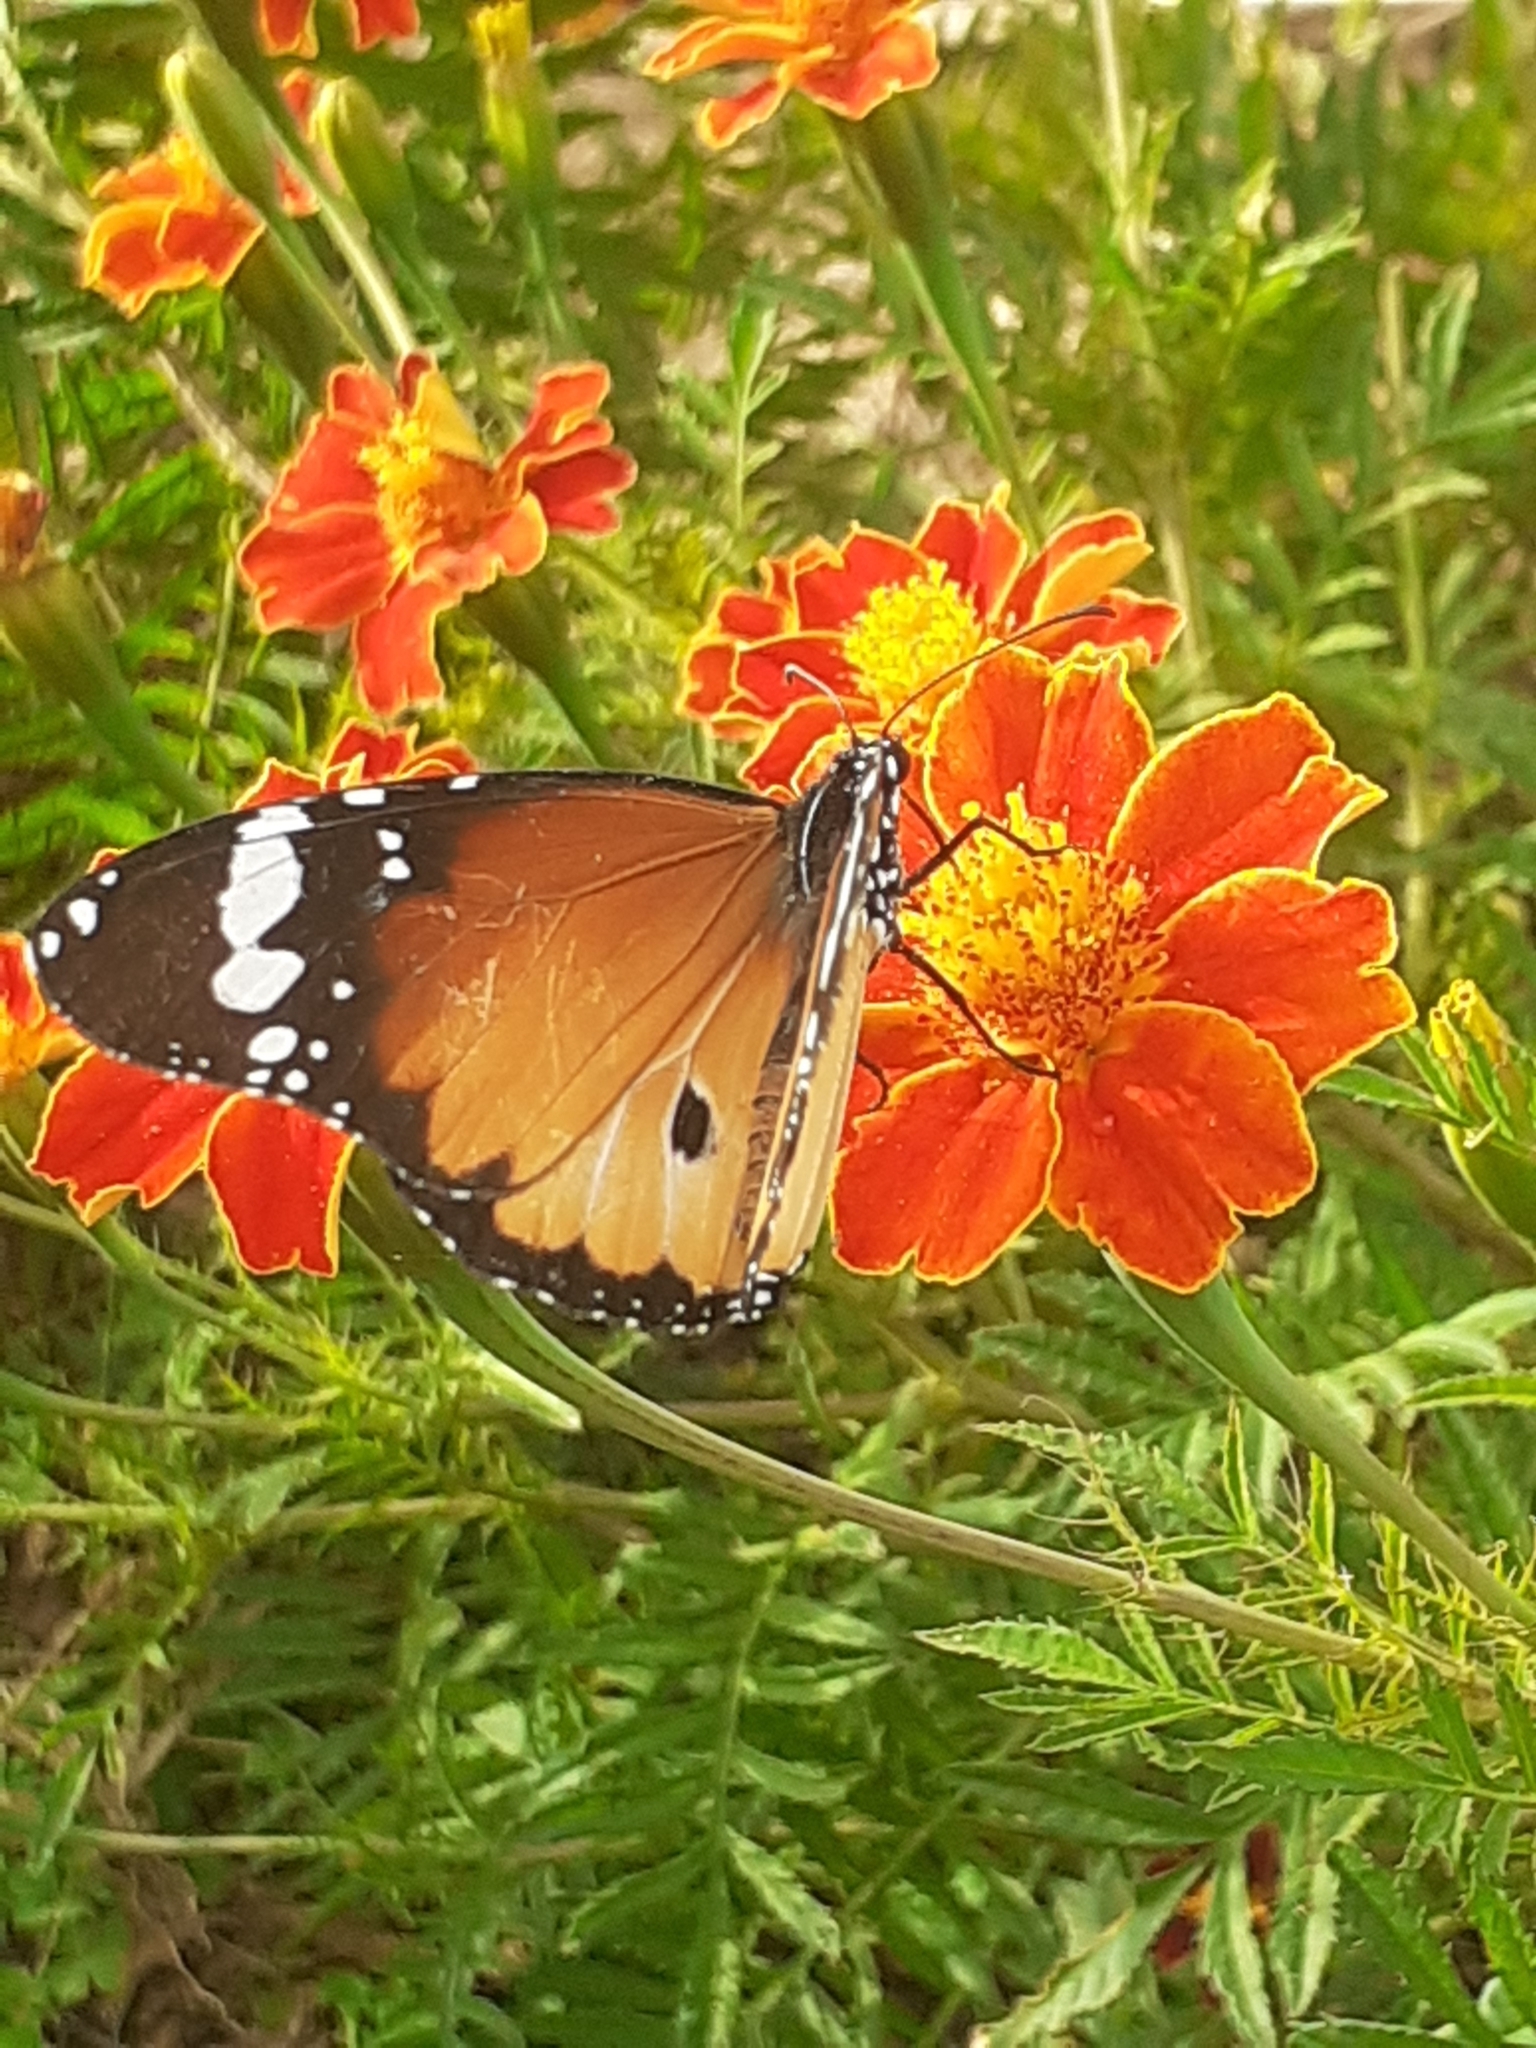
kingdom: Animalia
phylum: Arthropoda
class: Insecta
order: Lepidoptera
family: Nymphalidae
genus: Danaus
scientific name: Danaus chrysippus
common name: Plain tiger
